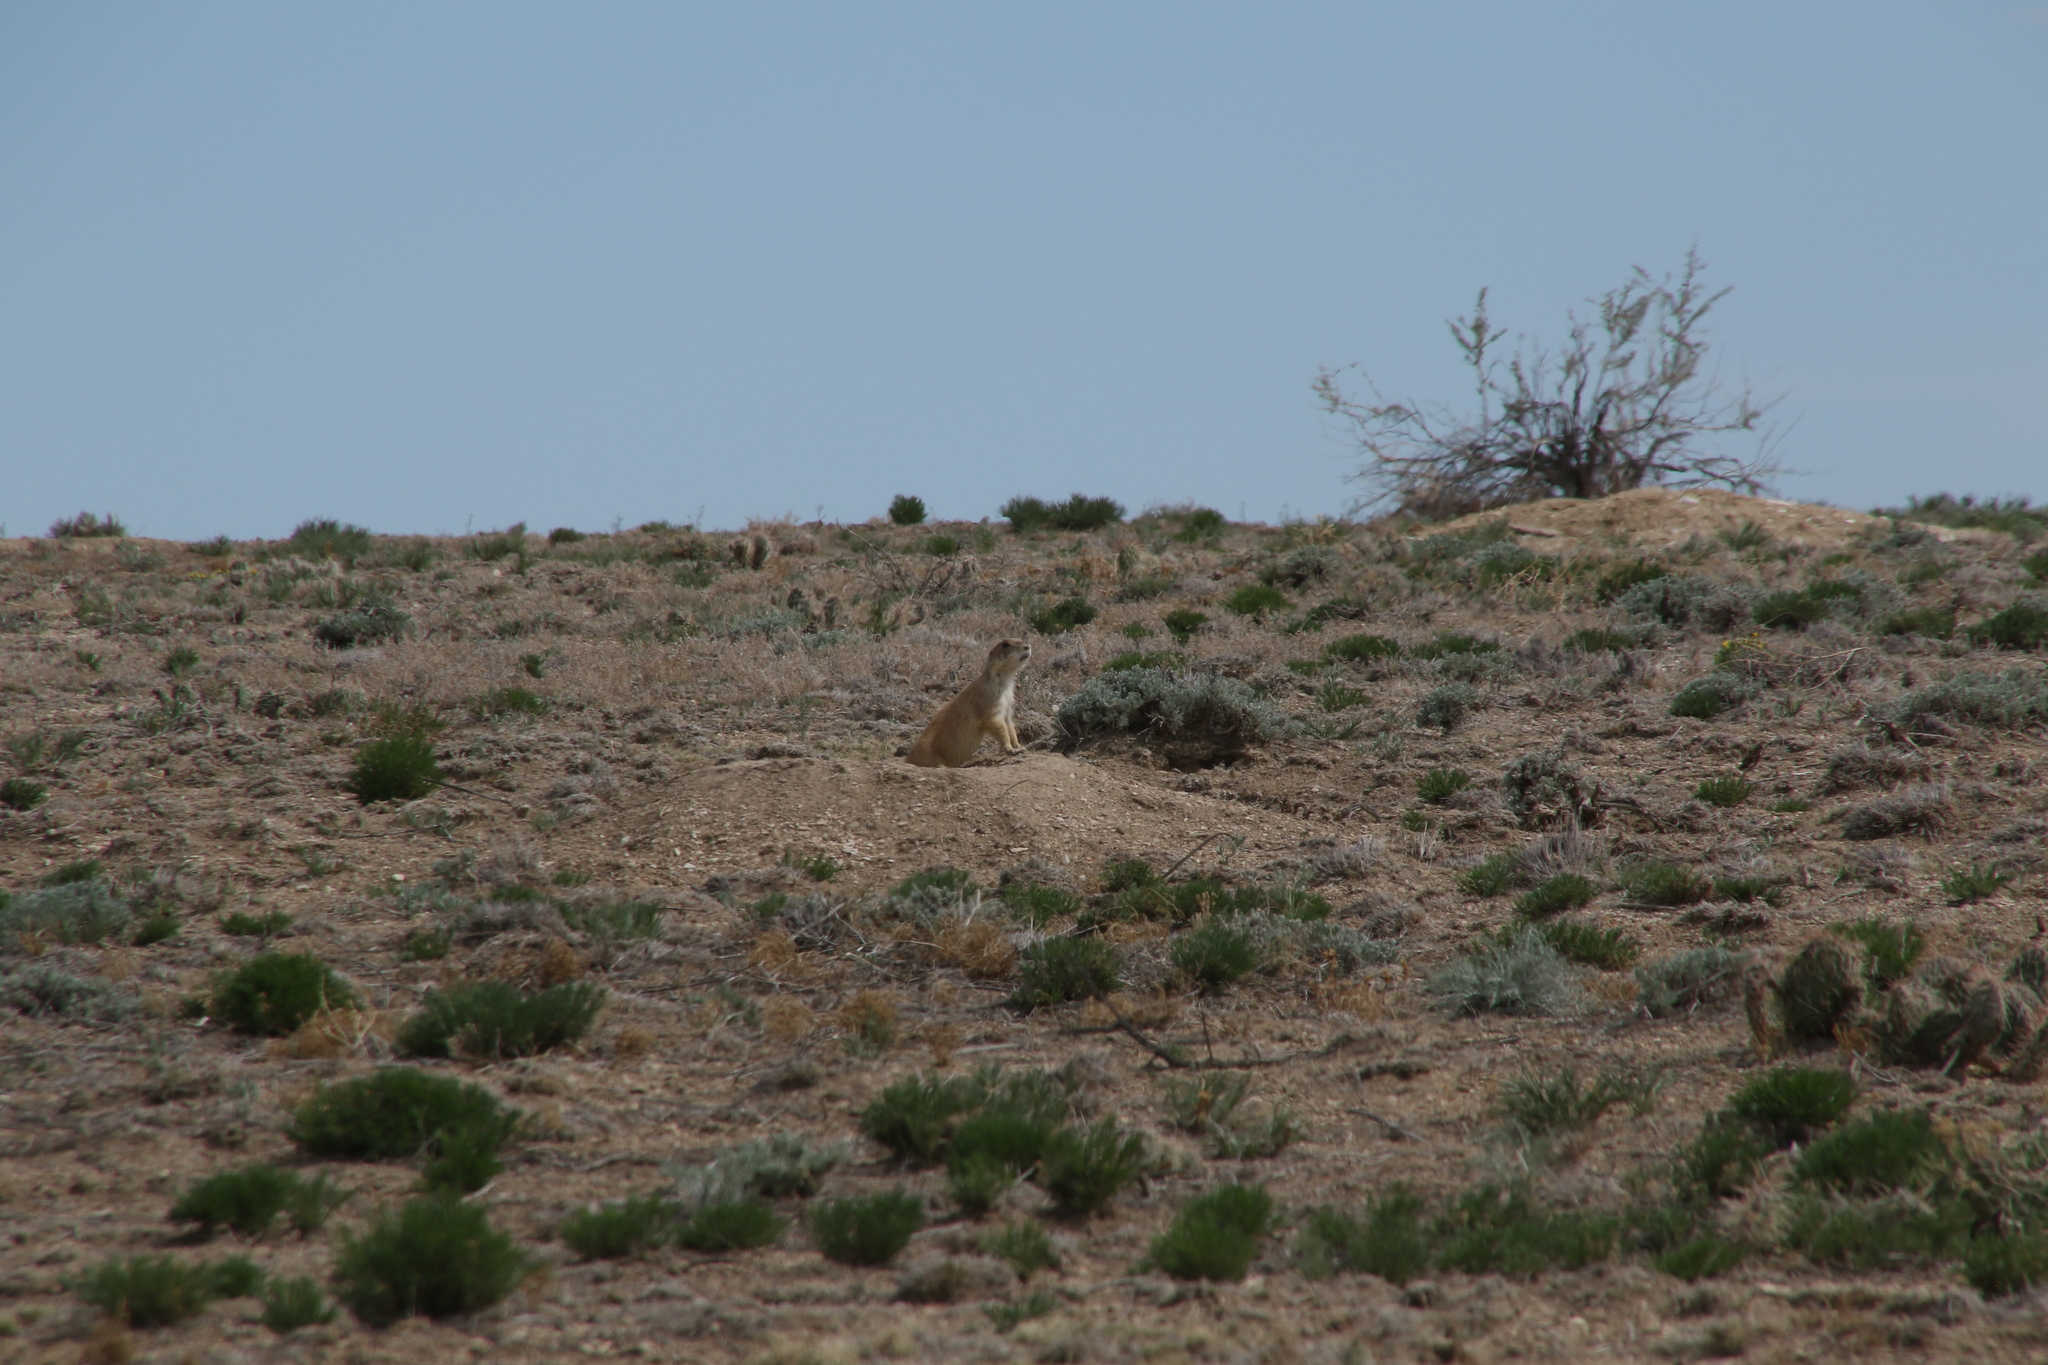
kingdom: Animalia
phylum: Chordata
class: Mammalia
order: Rodentia
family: Sciuridae
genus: Cynomys
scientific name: Cynomys ludovicianus
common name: Black-tailed prairie dog
